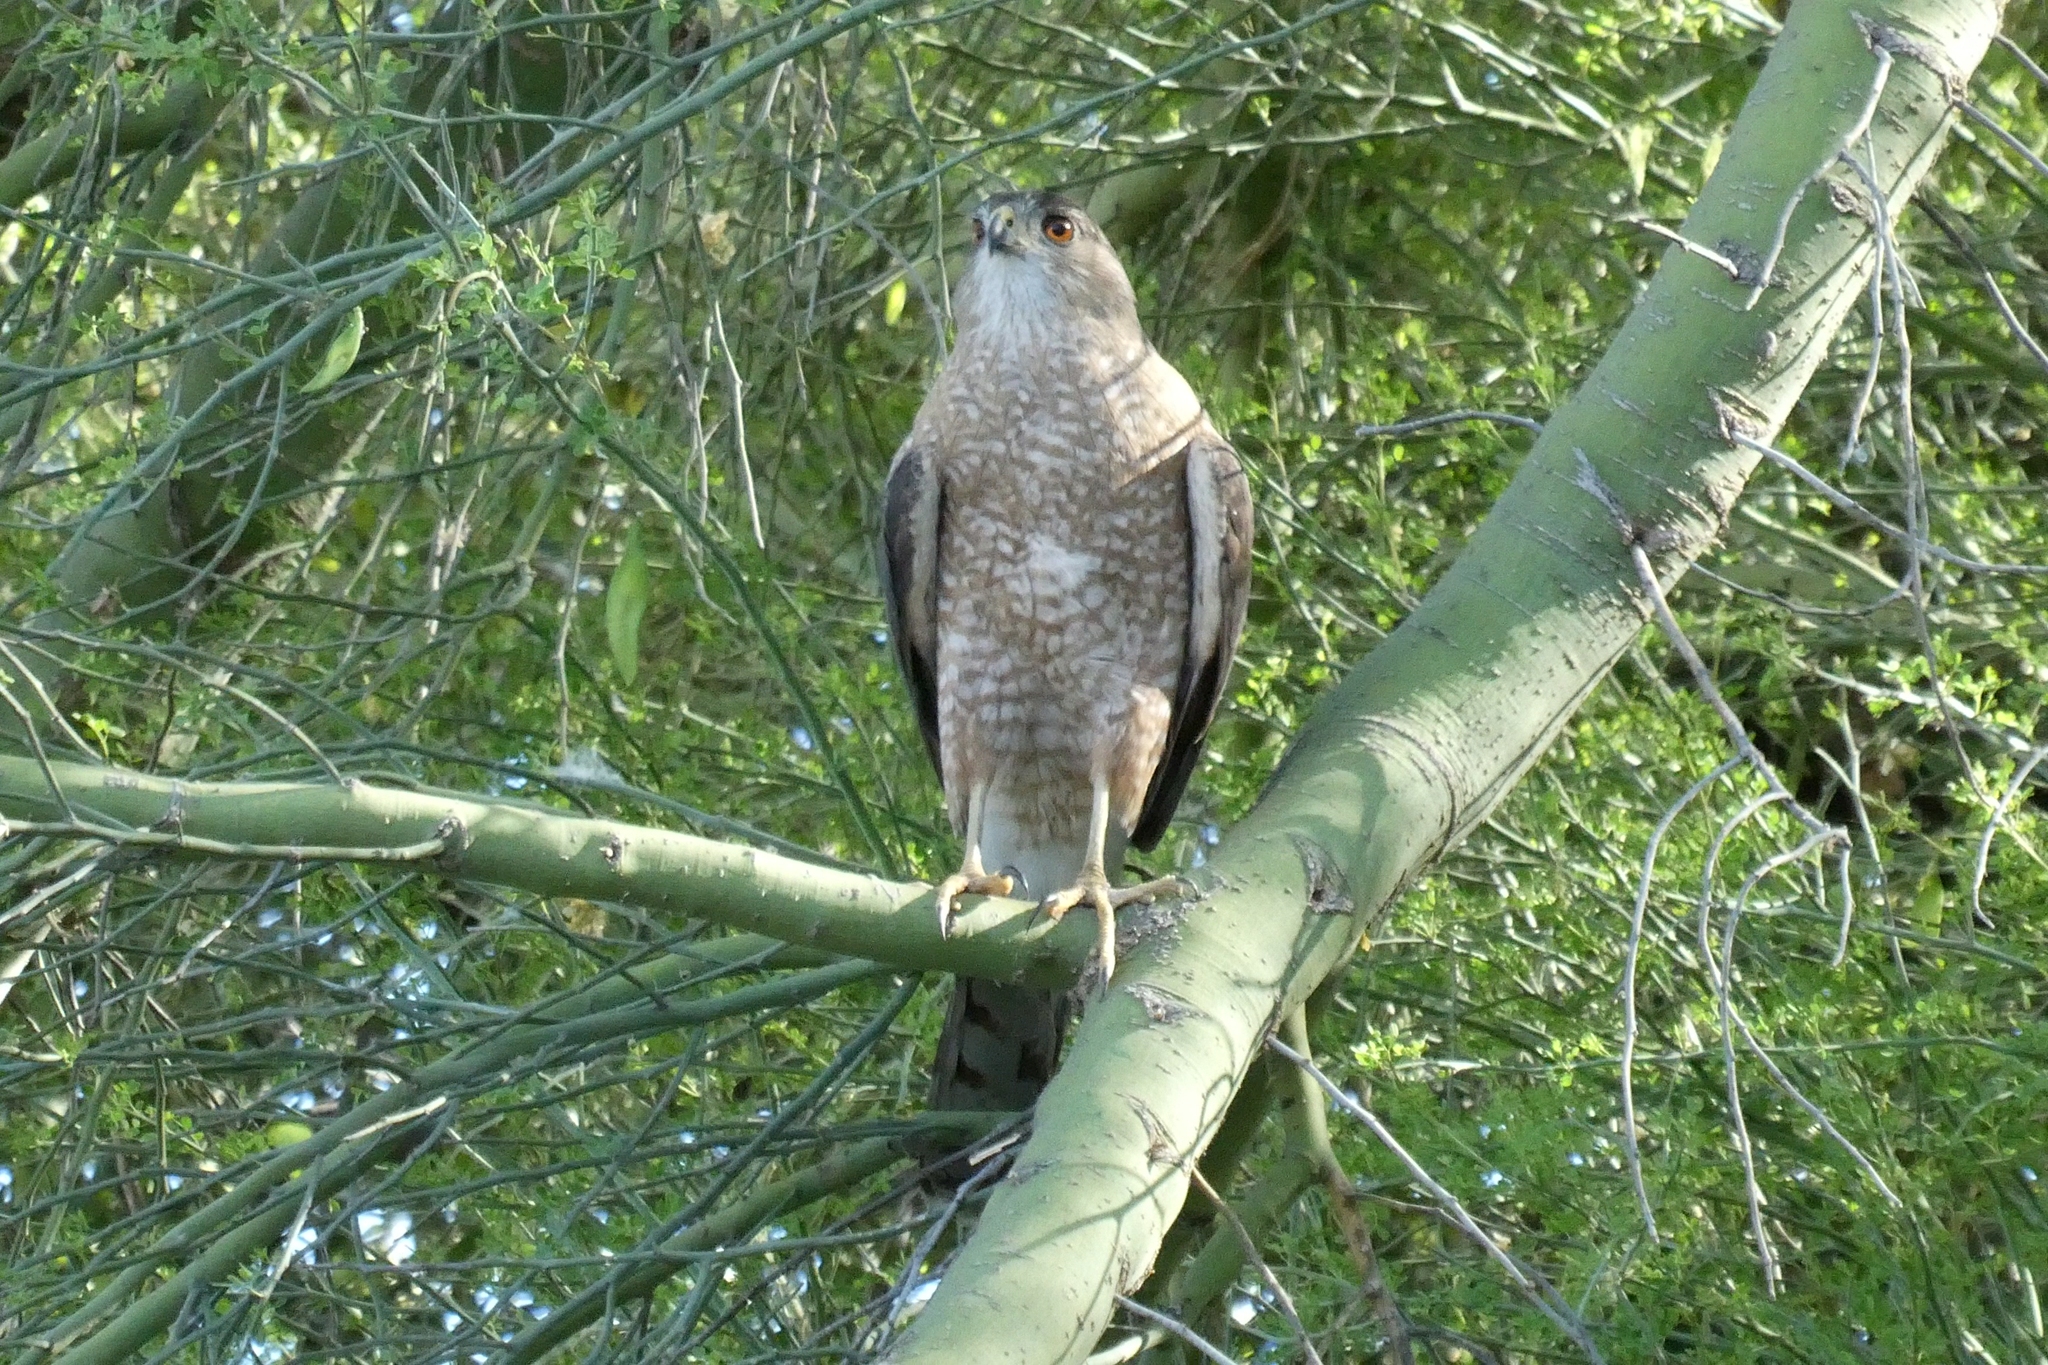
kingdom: Animalia
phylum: Chordata
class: Aves
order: Accipitriformes
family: Accipitridae
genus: Accipiter
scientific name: Accipiter cooperii
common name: Cooper's hawk
